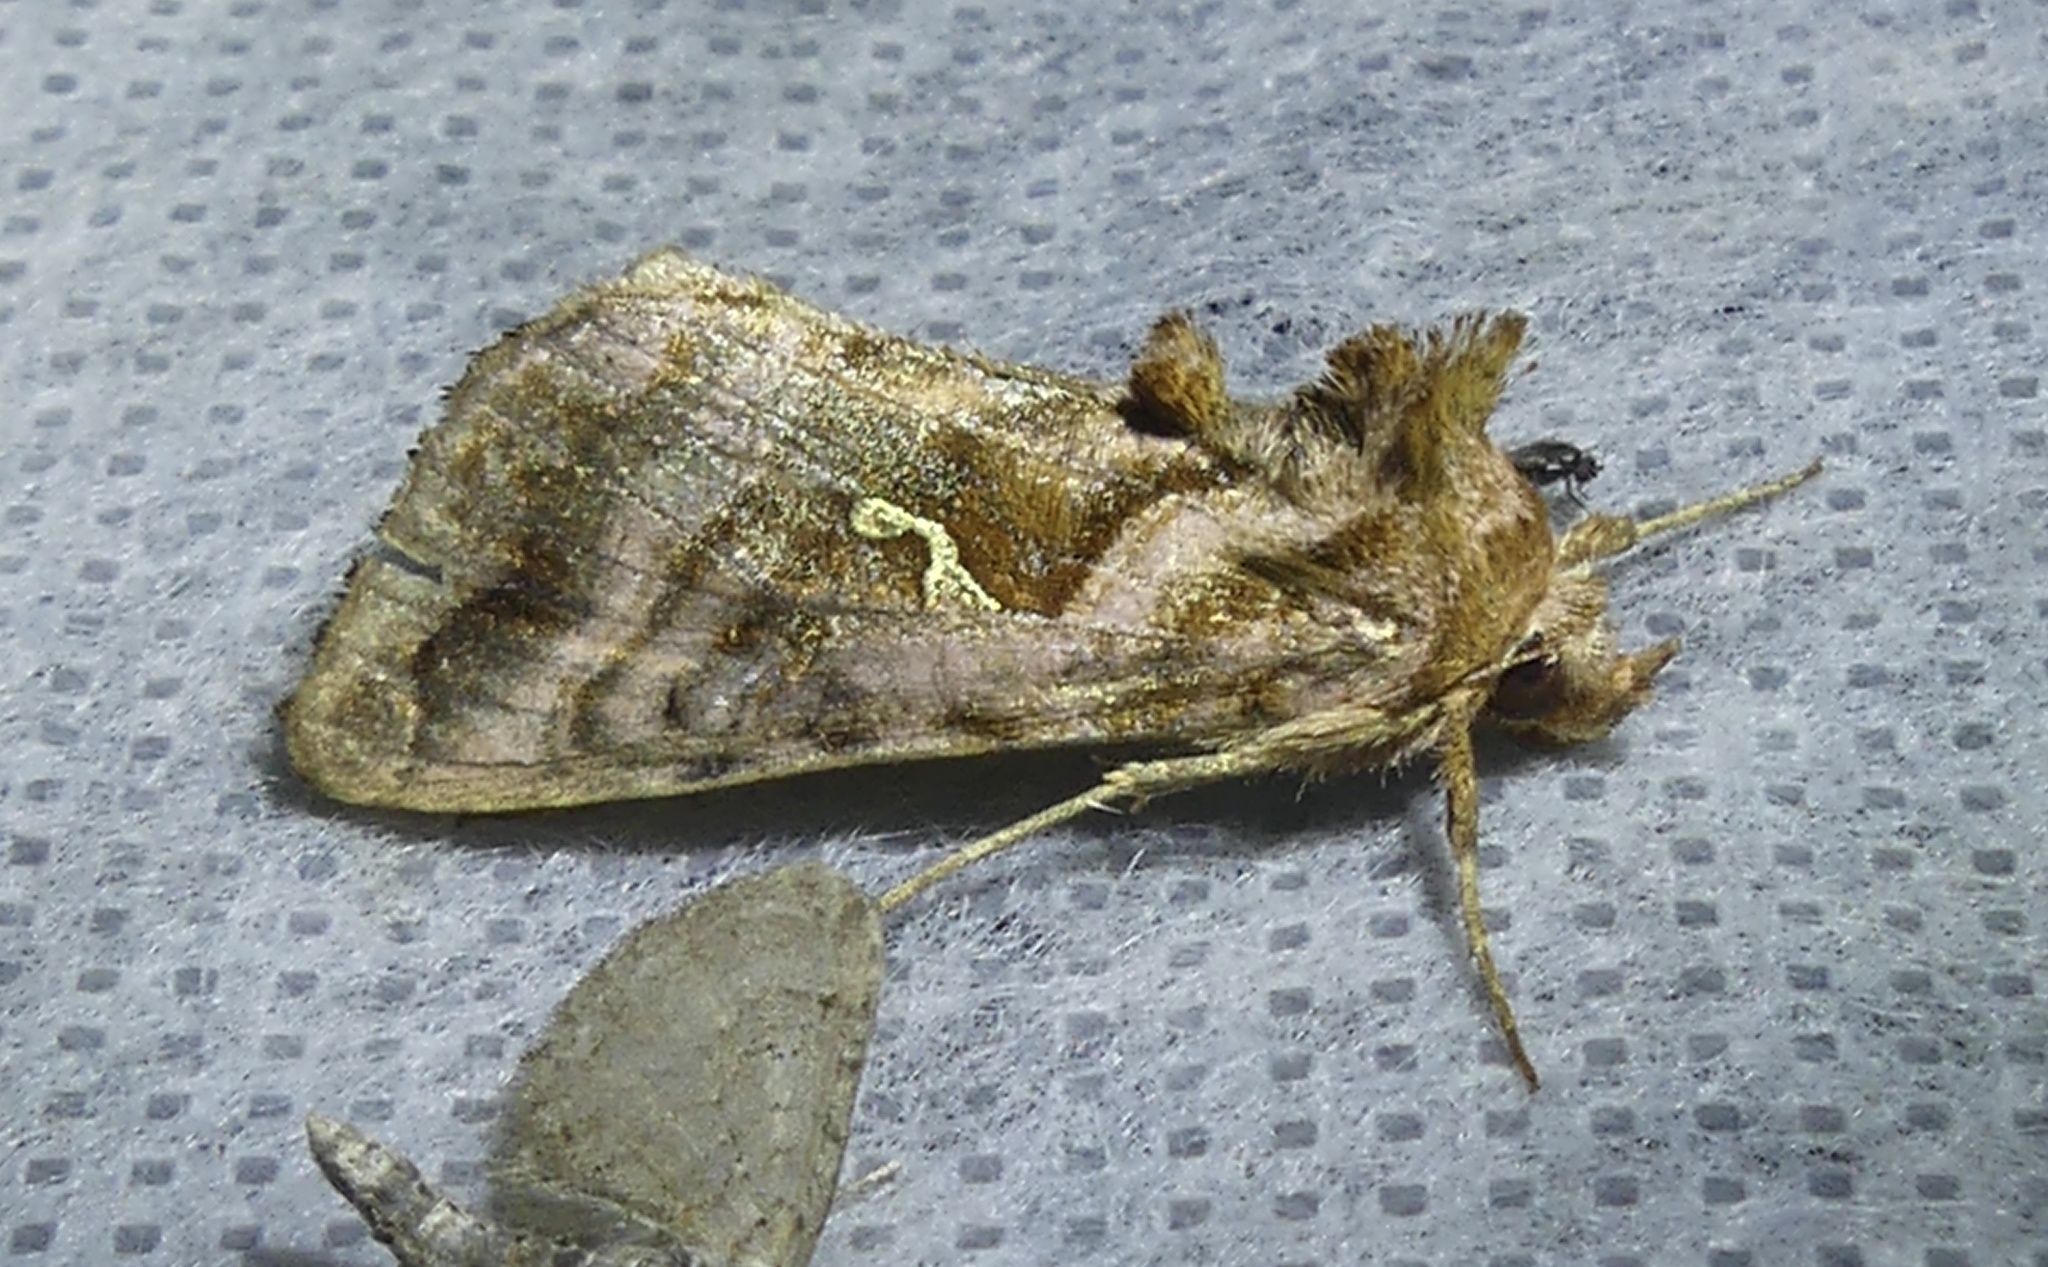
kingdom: Animalia
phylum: Arthropoda
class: Insecta
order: Lepidoptera
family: Noctuidae
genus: Autographa
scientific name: Autographa pulchrina
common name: Beautiful golden y
